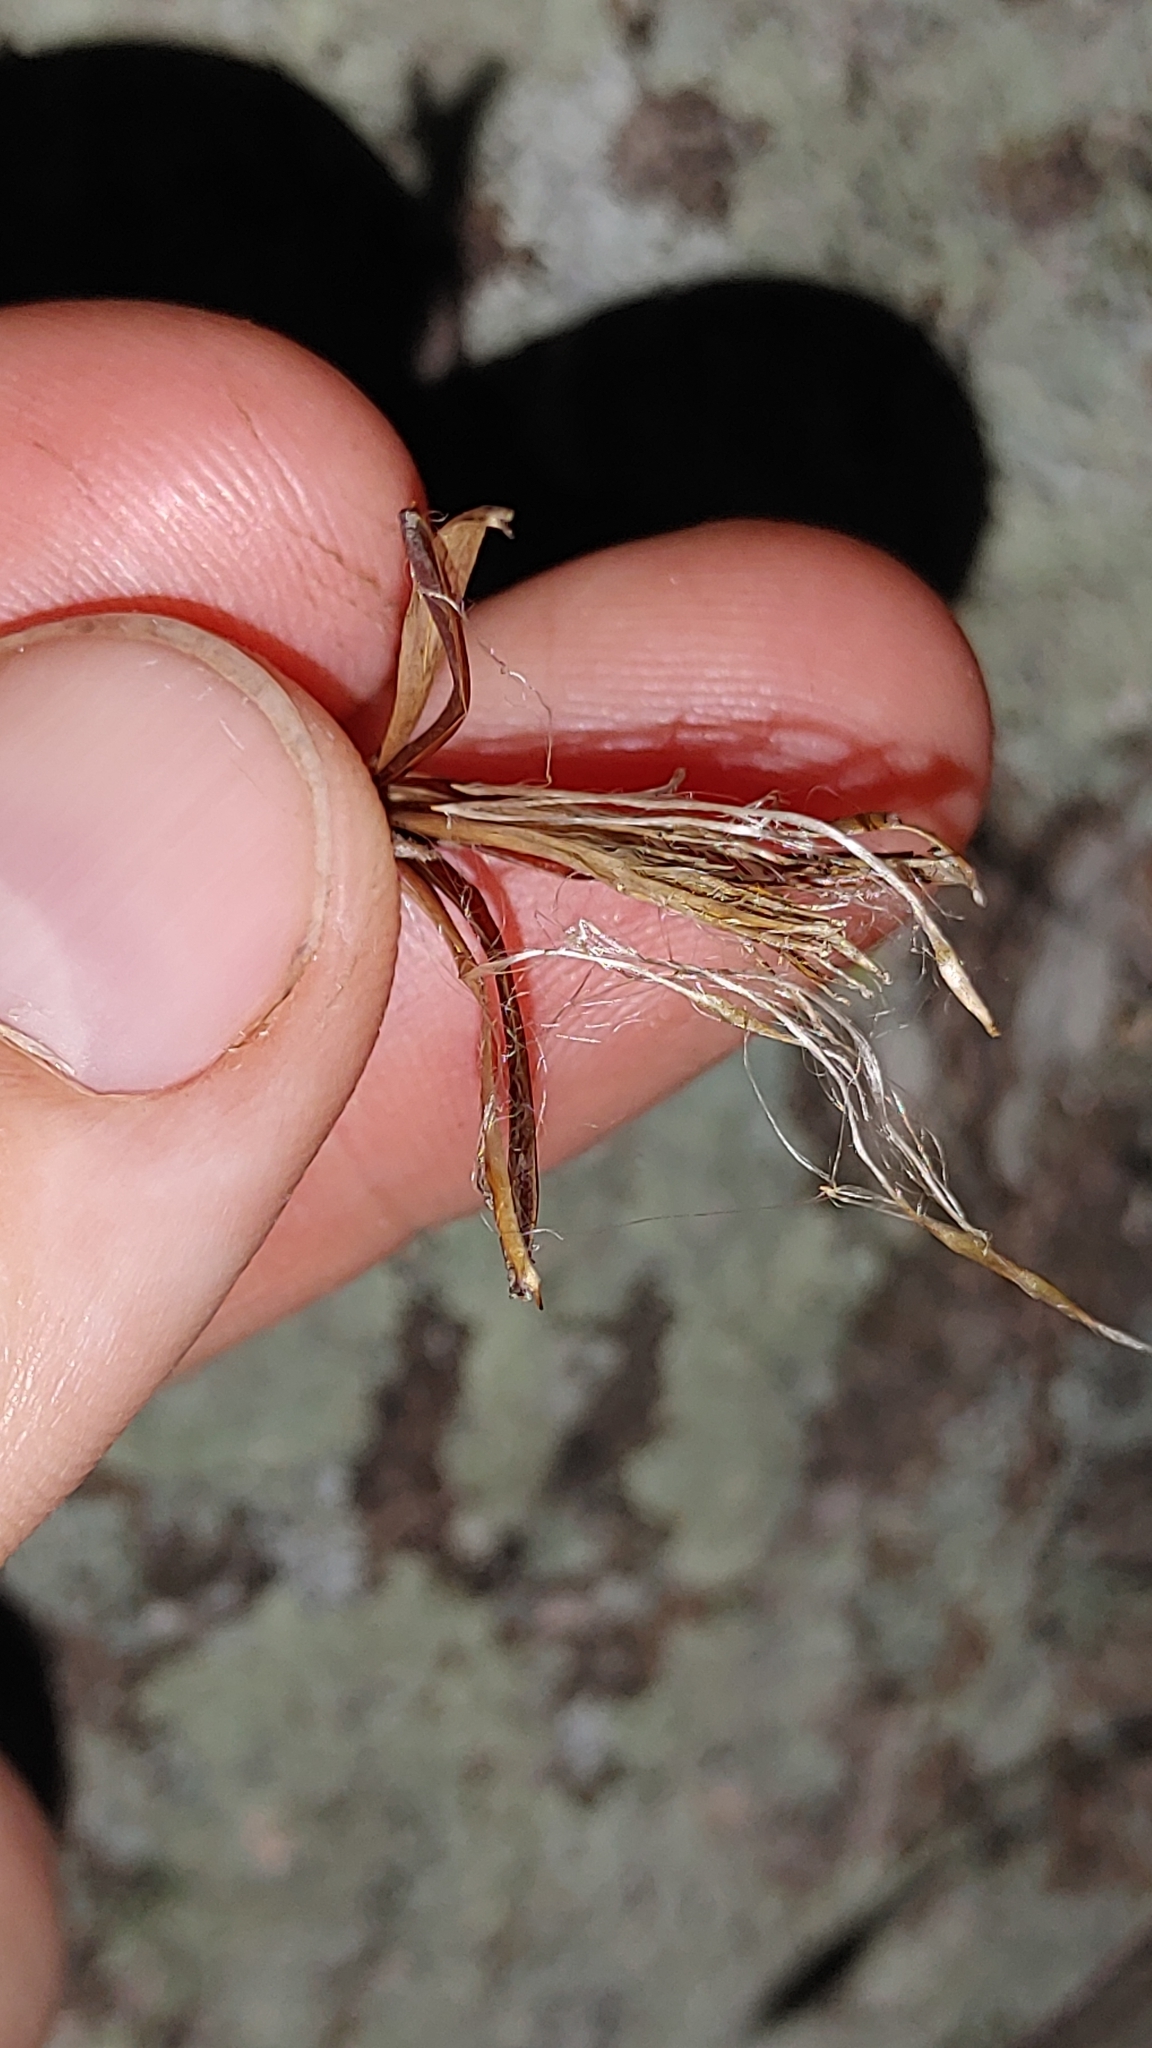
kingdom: Plantae
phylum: Tracheophyta
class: Liliopsida
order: Poales
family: Bromeliaceae
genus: Tillandsia
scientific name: Tillandsia recurvata
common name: Small ballmoss
